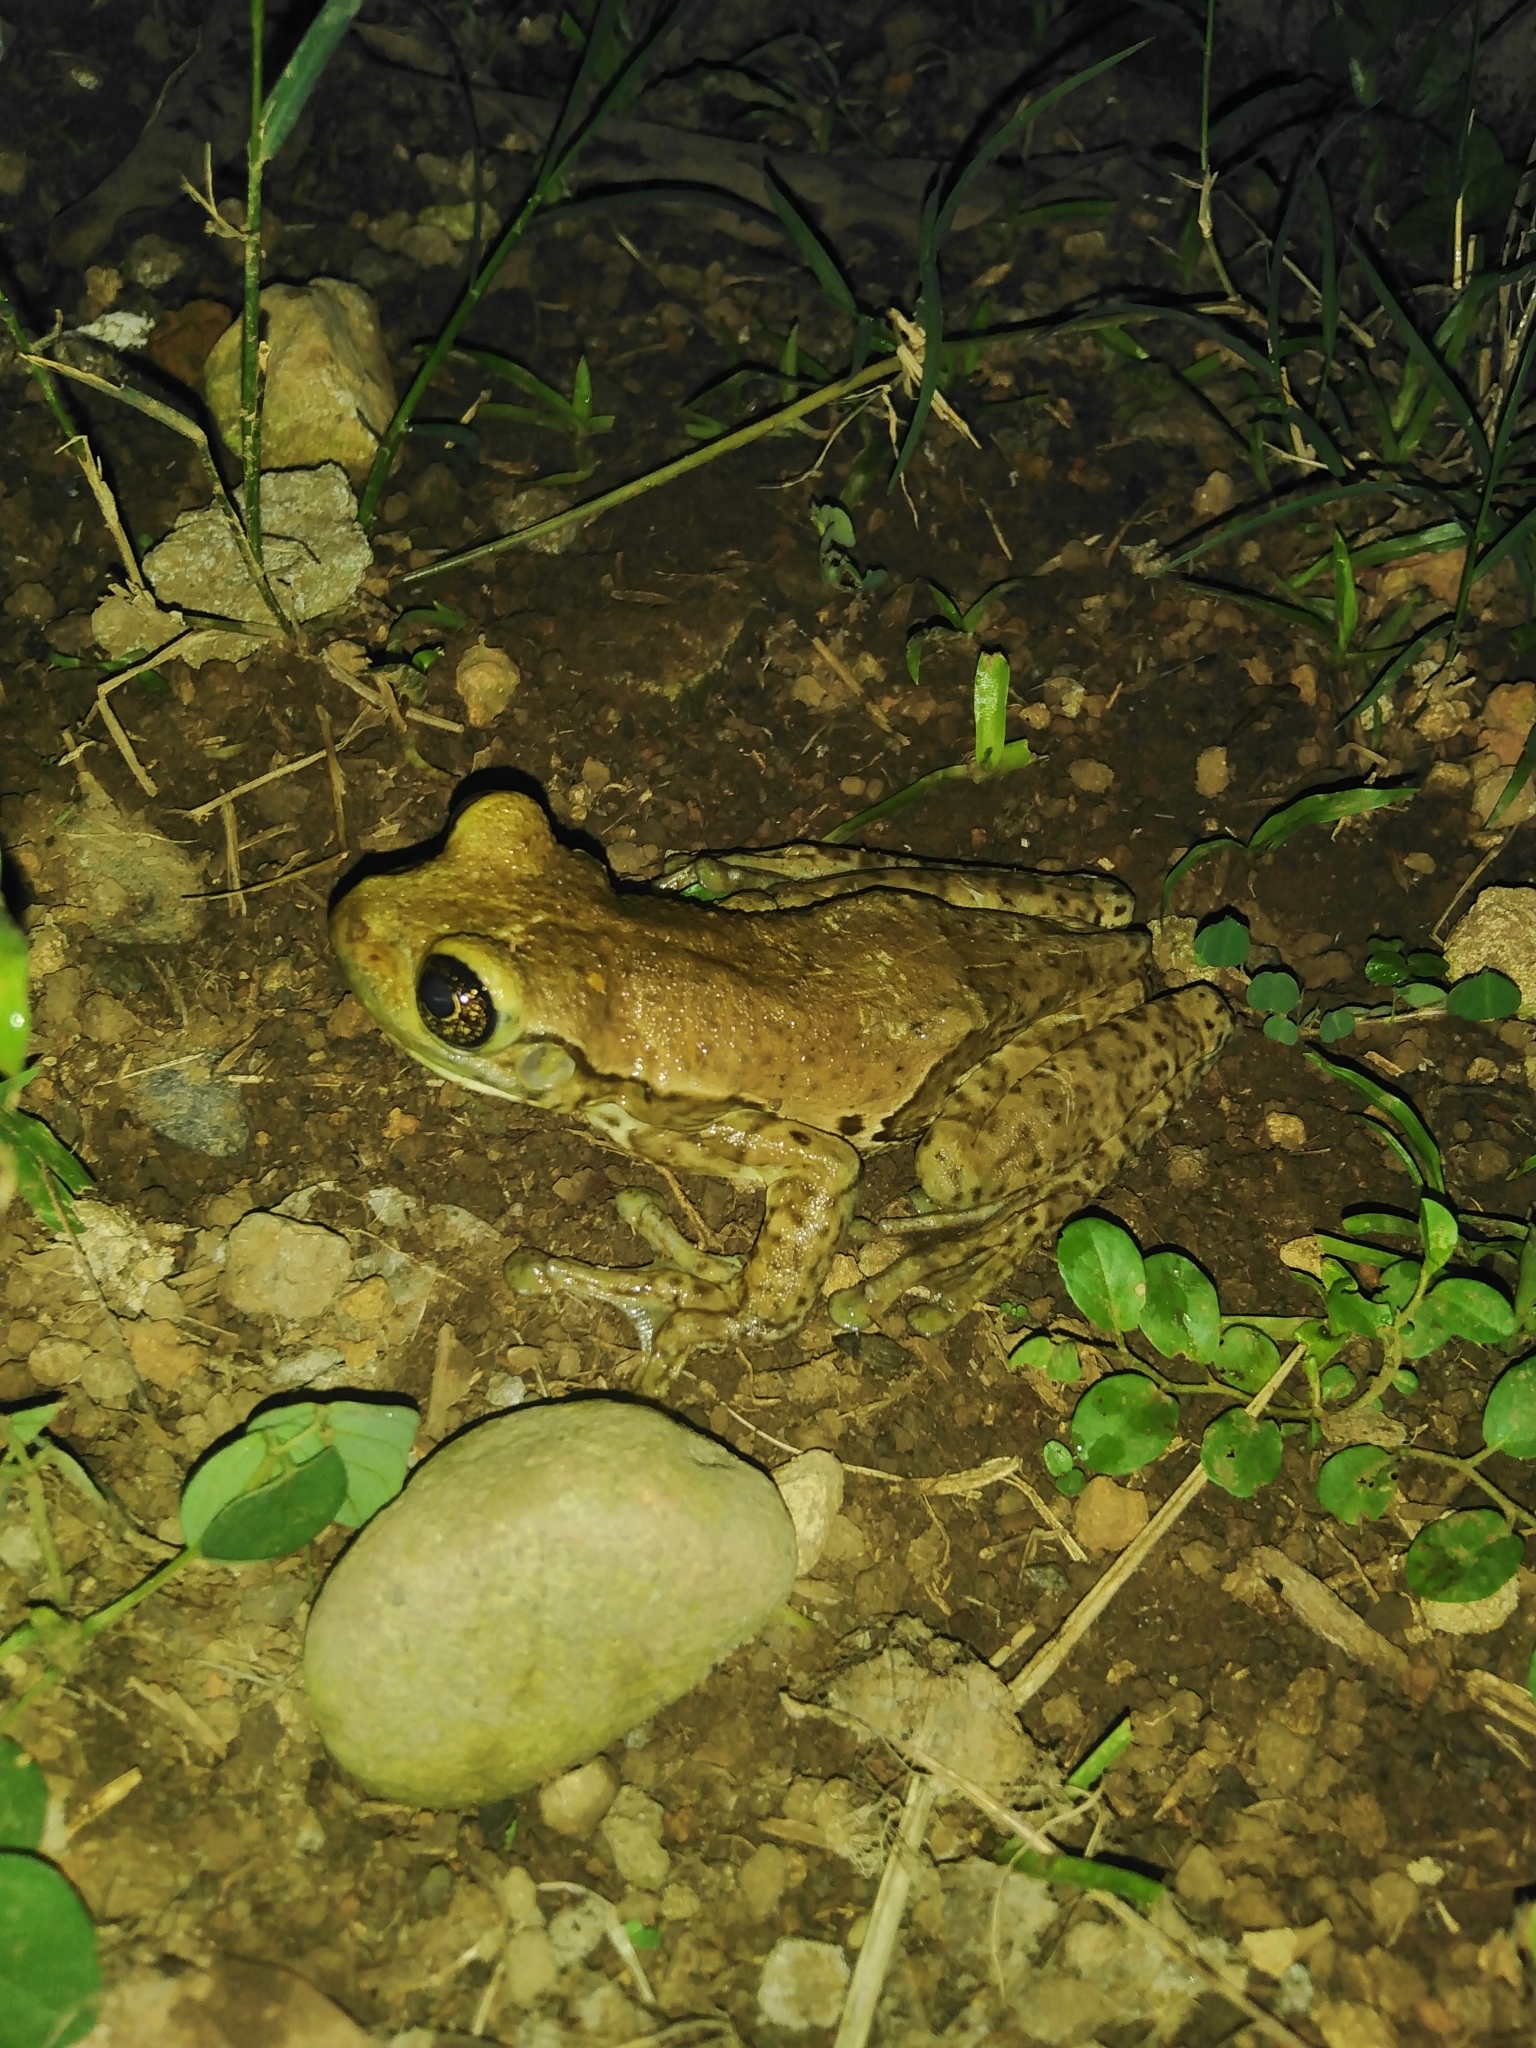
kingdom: Animalia
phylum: Chordata
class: Amphibia
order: Anura
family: Hylidae
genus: Trachycephalus
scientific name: Trachycephalus vermiculatus
